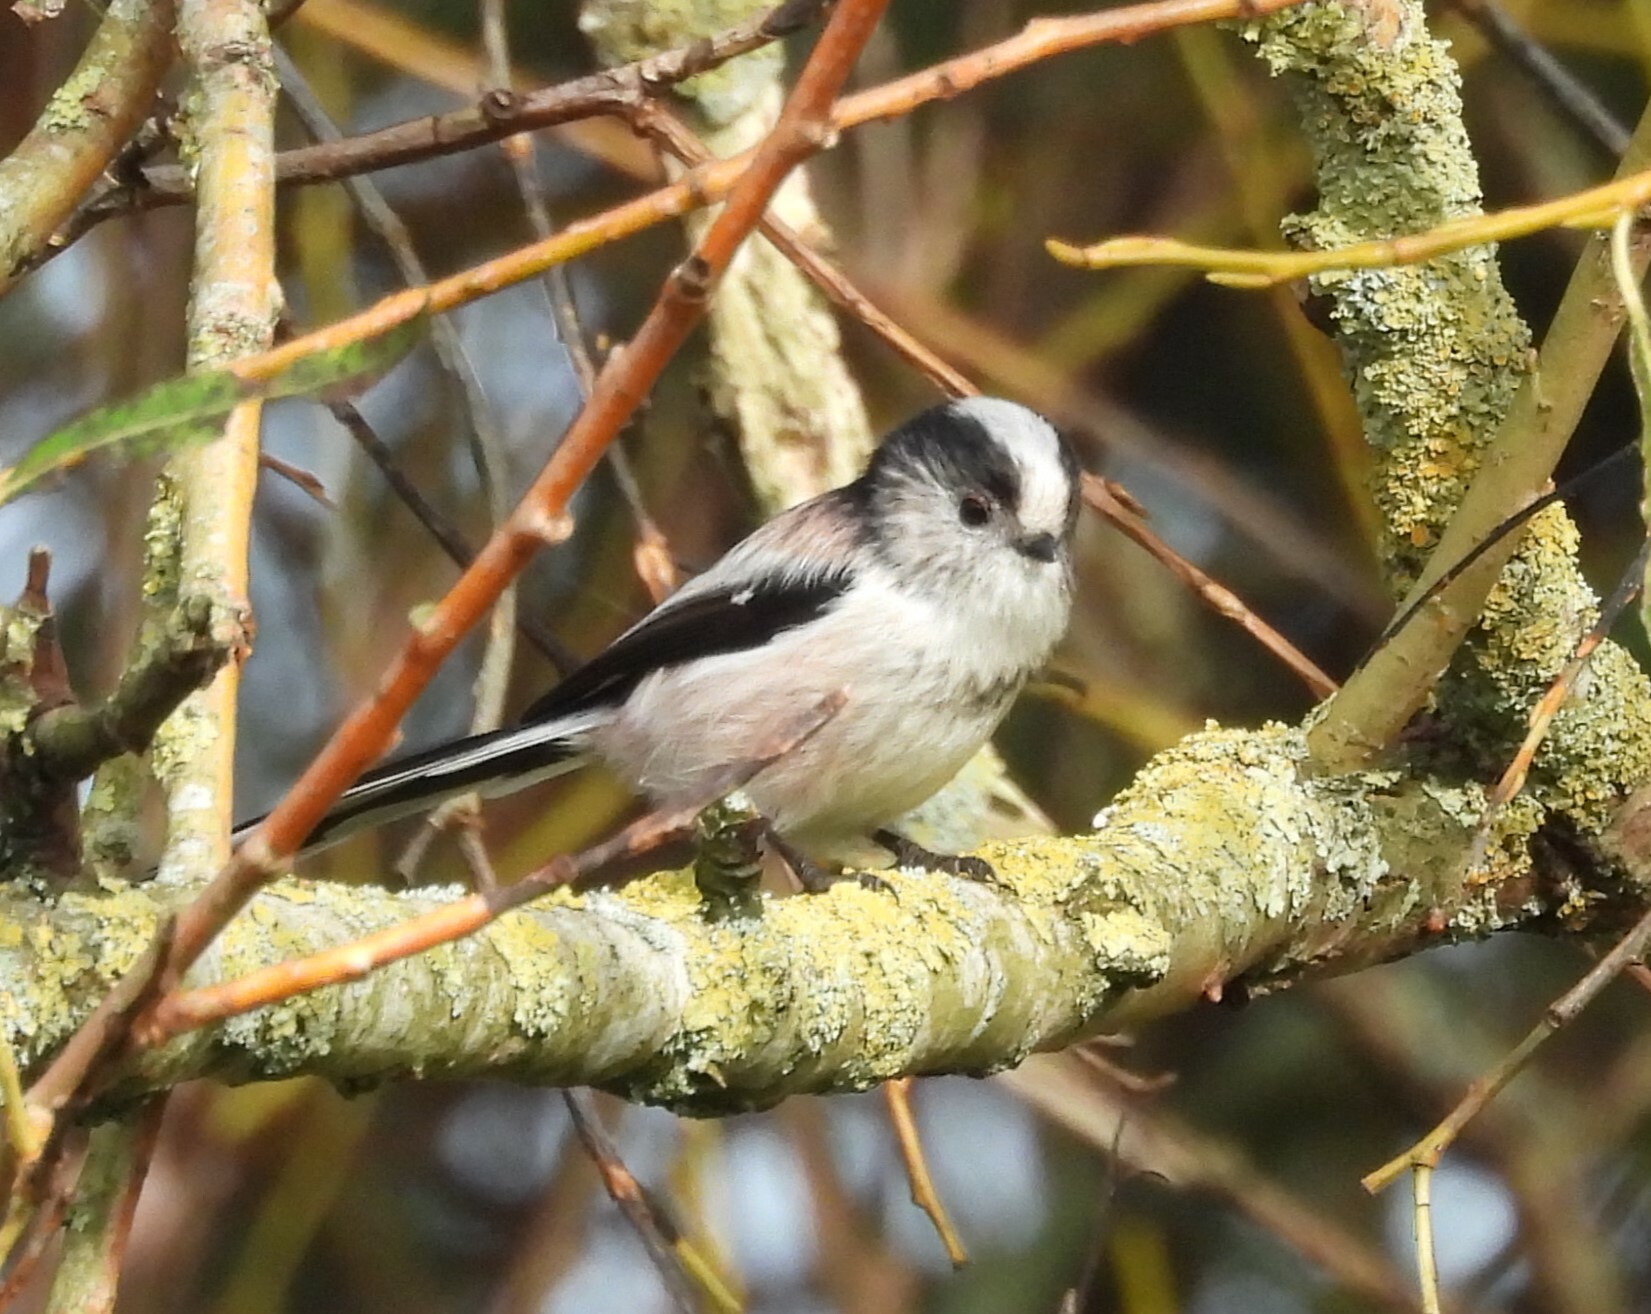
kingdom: Animalia
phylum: Chordata
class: Aves
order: Passeriformes
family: Aegithalidae
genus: Aegithalos
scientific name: Aegithalos caudatus
